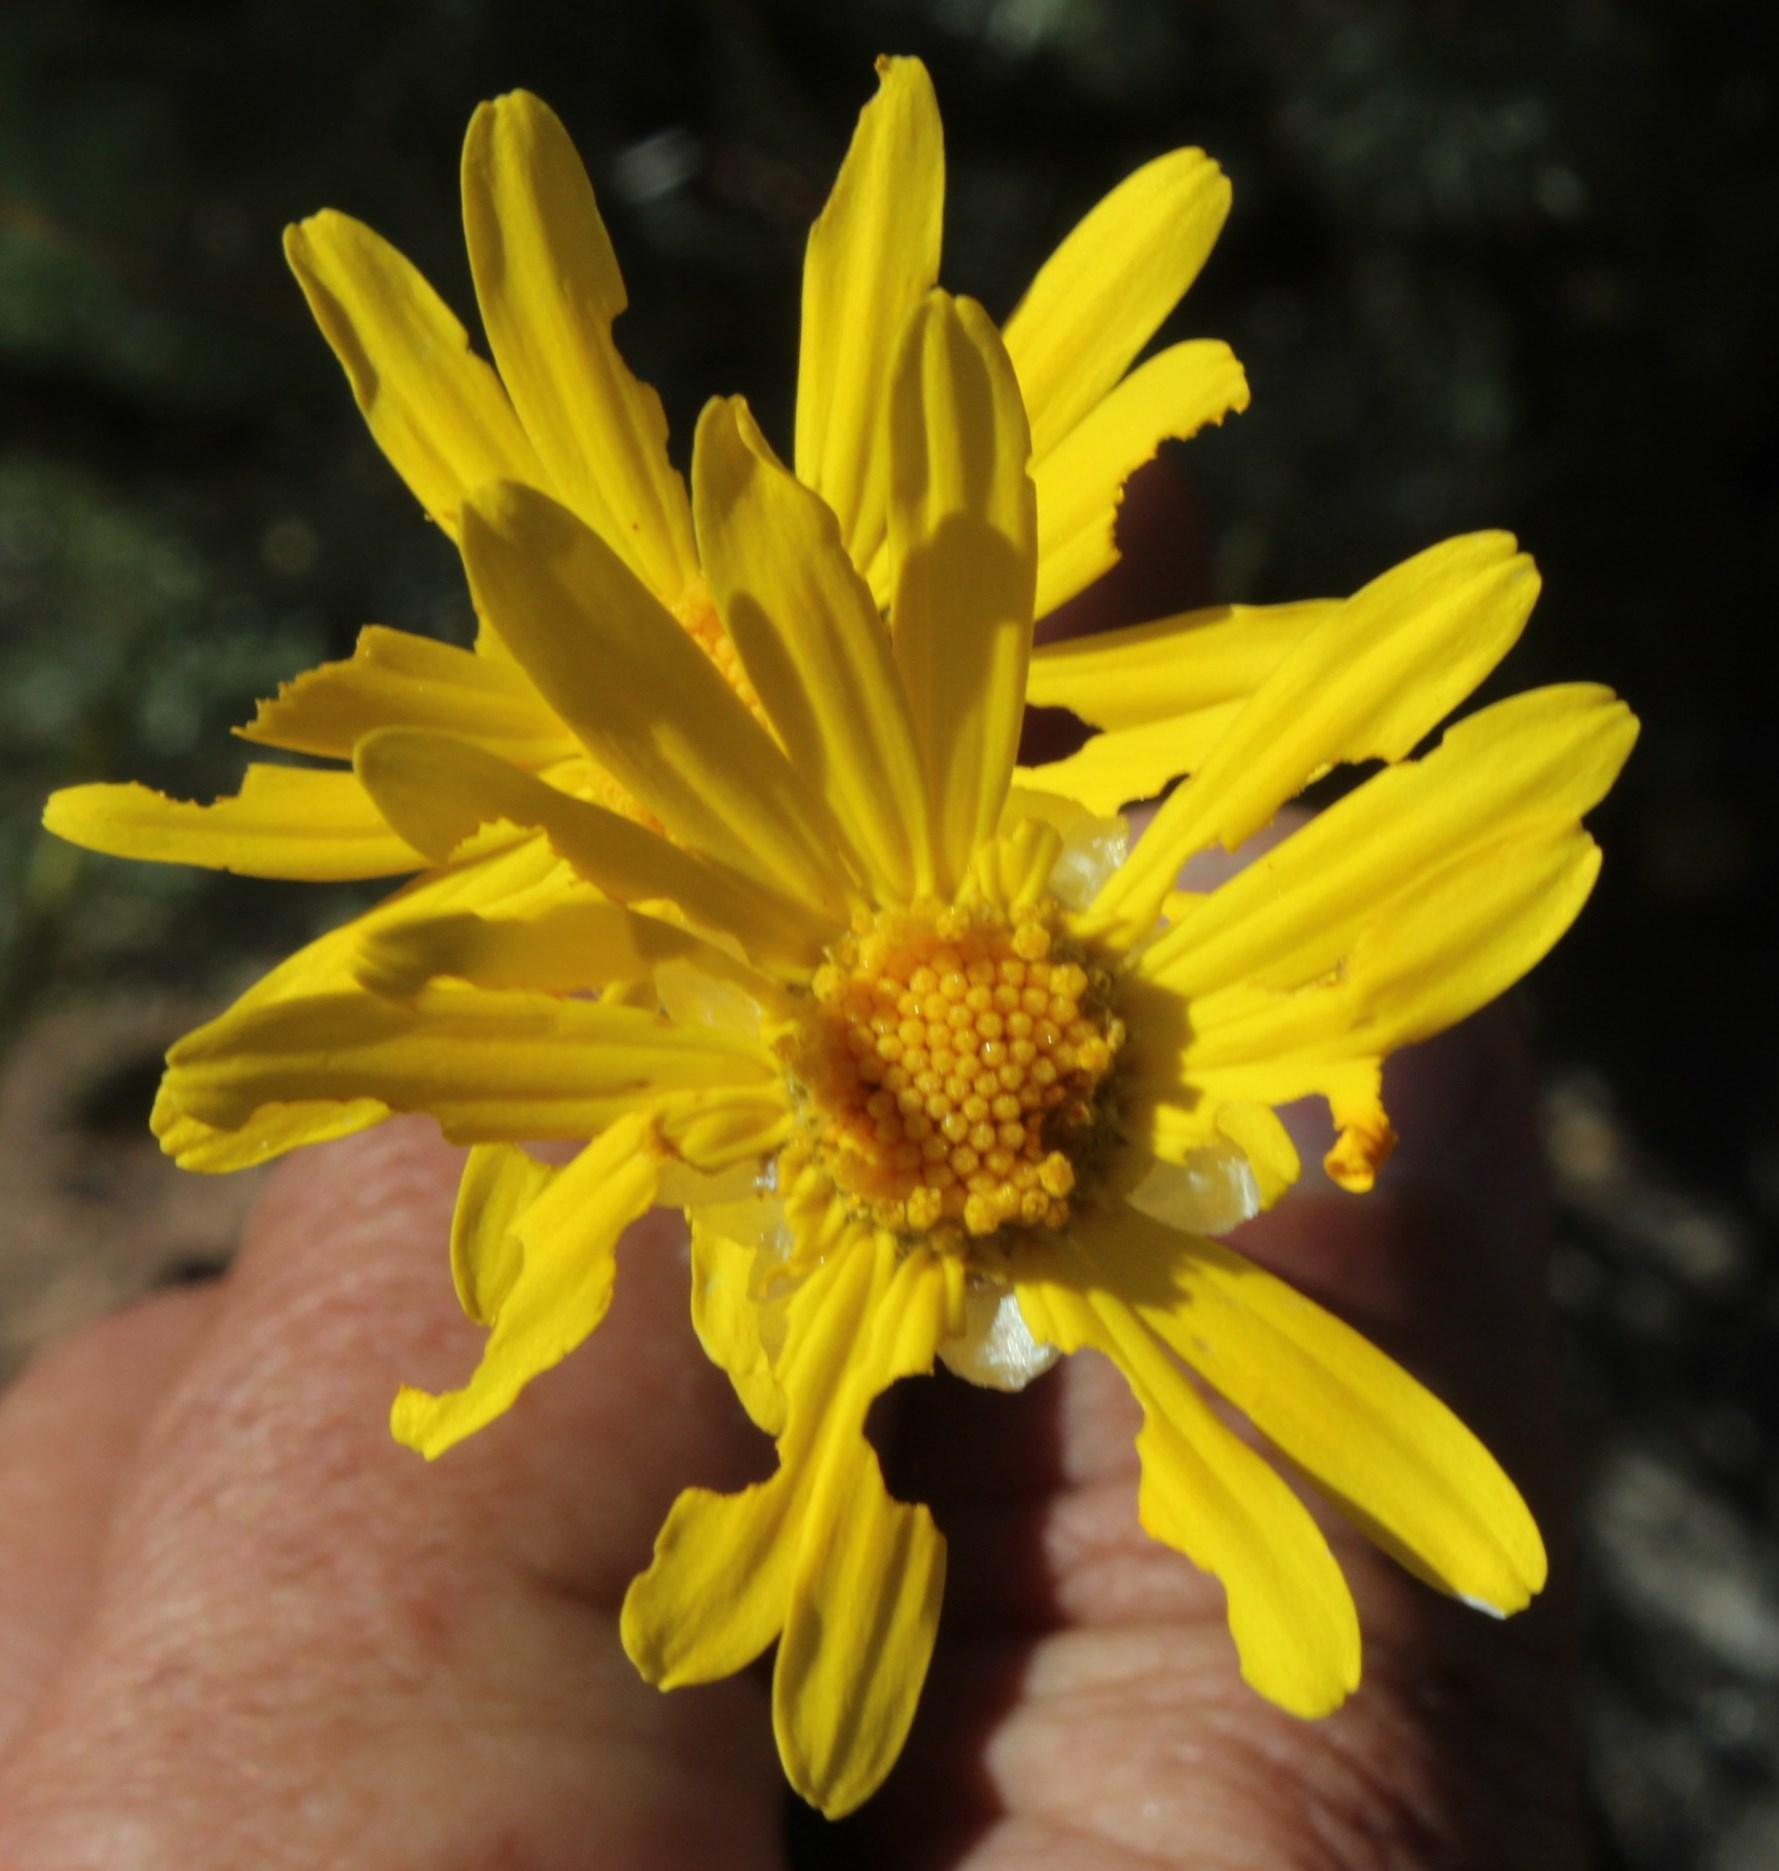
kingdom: Plantae
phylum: Tracheophyta
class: Magnoliopsida
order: Asterales
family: Asteraceae
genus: Ursinia
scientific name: Ursinia sericea
